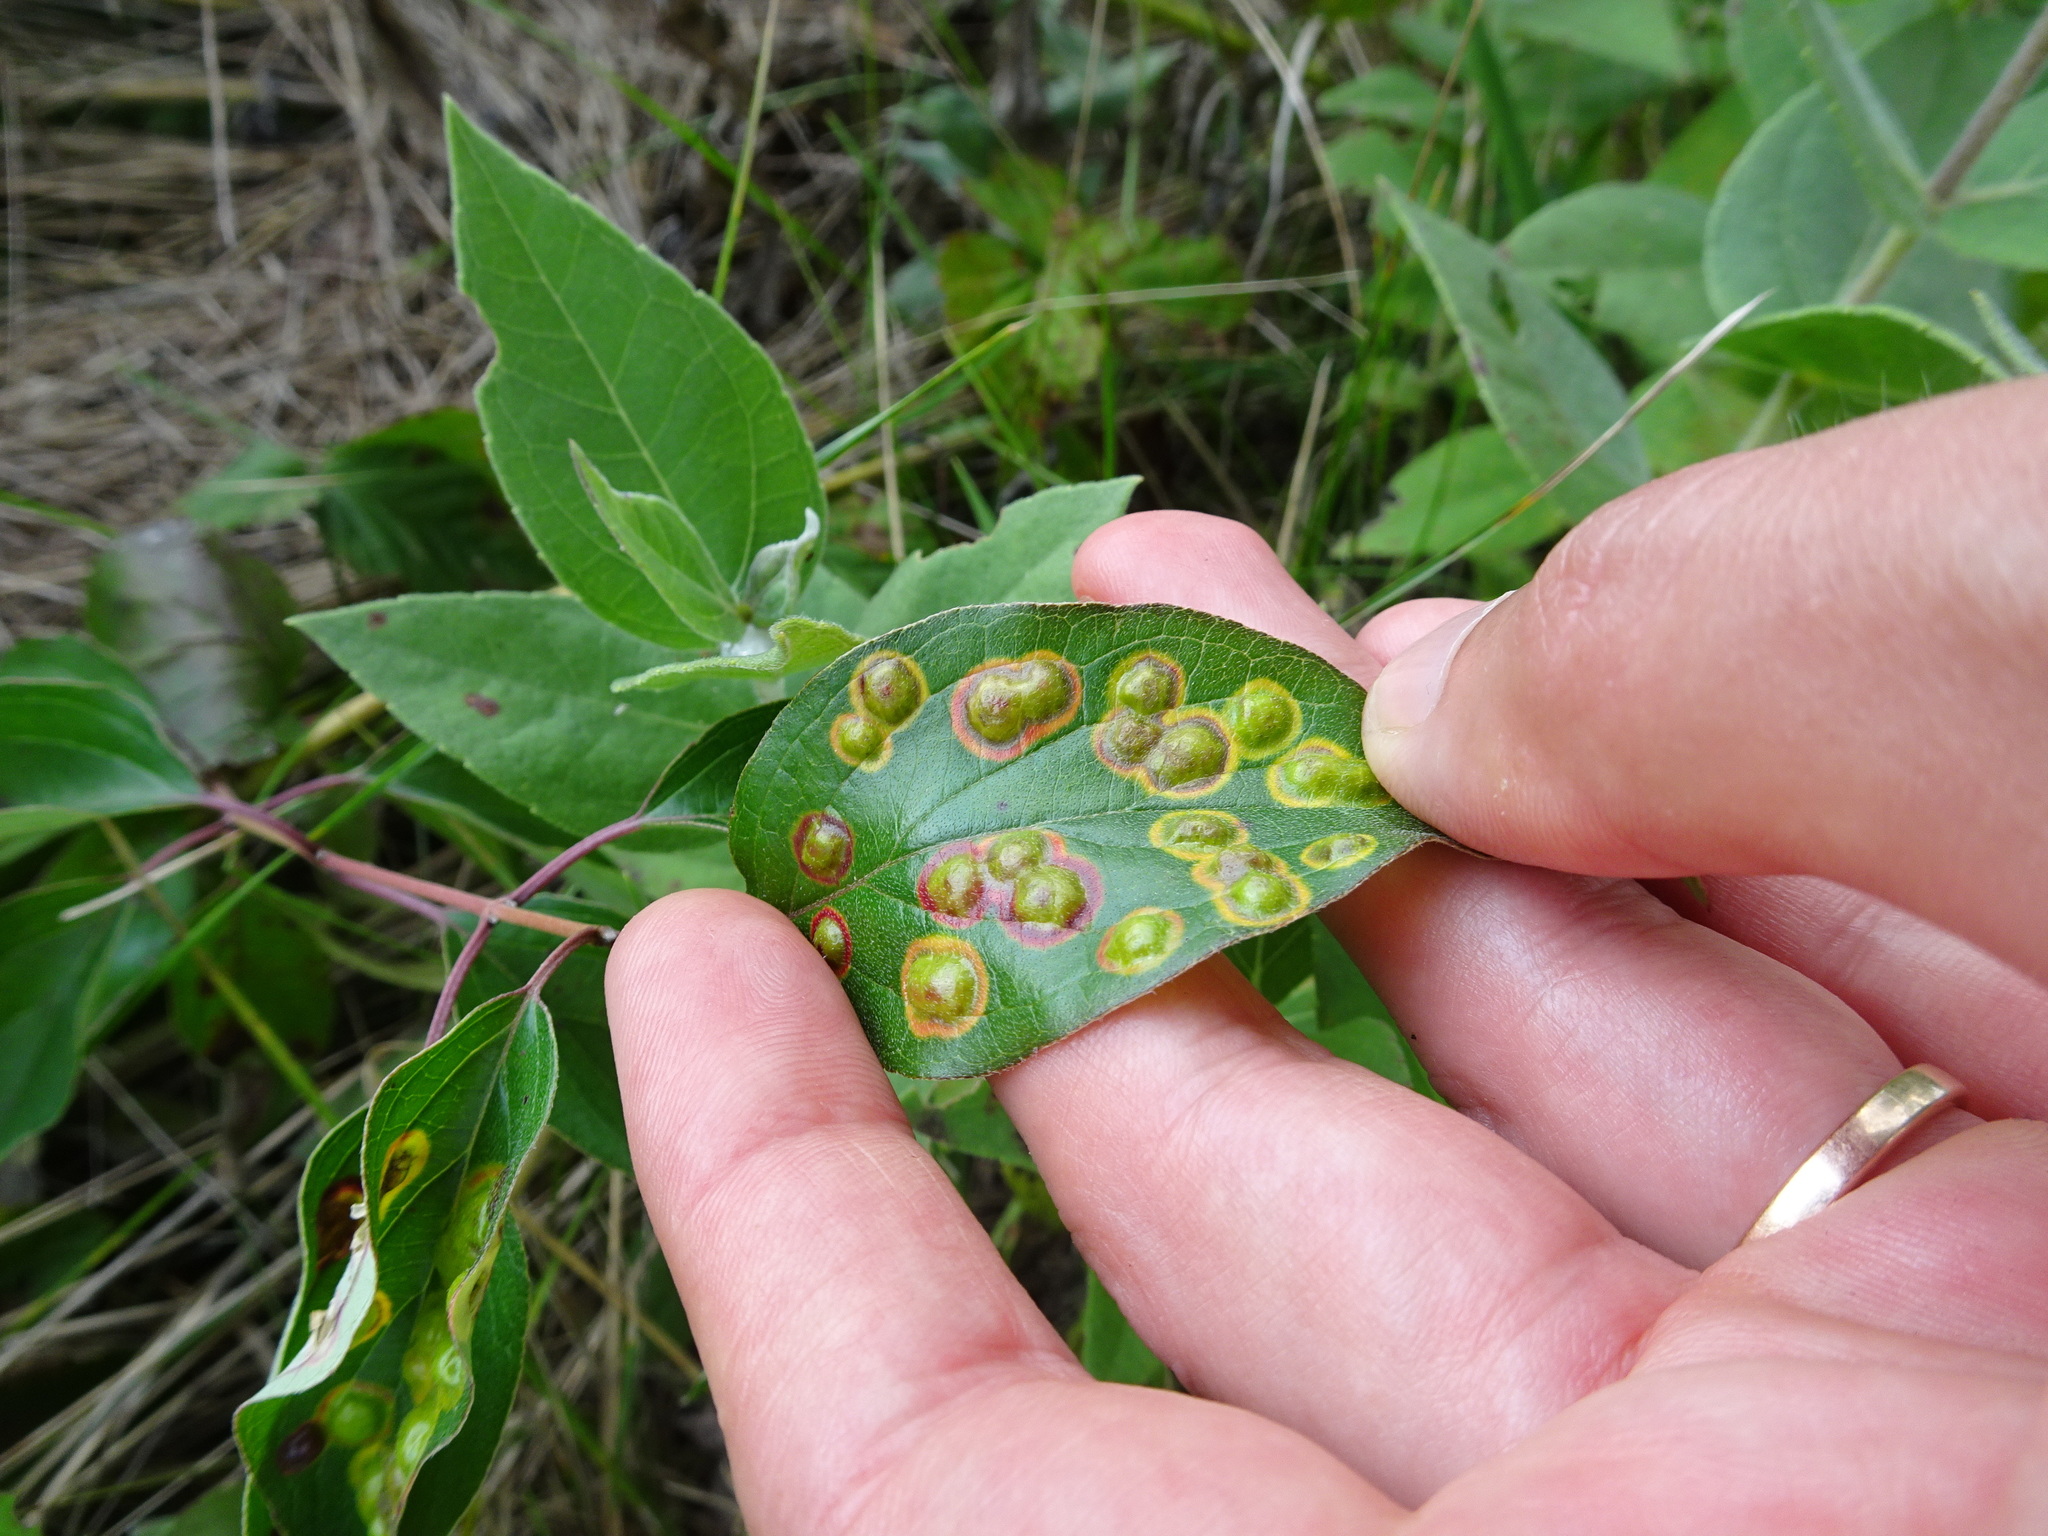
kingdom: Animalia
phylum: Arthropoda
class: Insecta
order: Diptera
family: Cecidomyiidae
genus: Parallelodiplosis
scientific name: Parallelodiplosis subtruncata
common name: Dogwood eyespot gall midge
